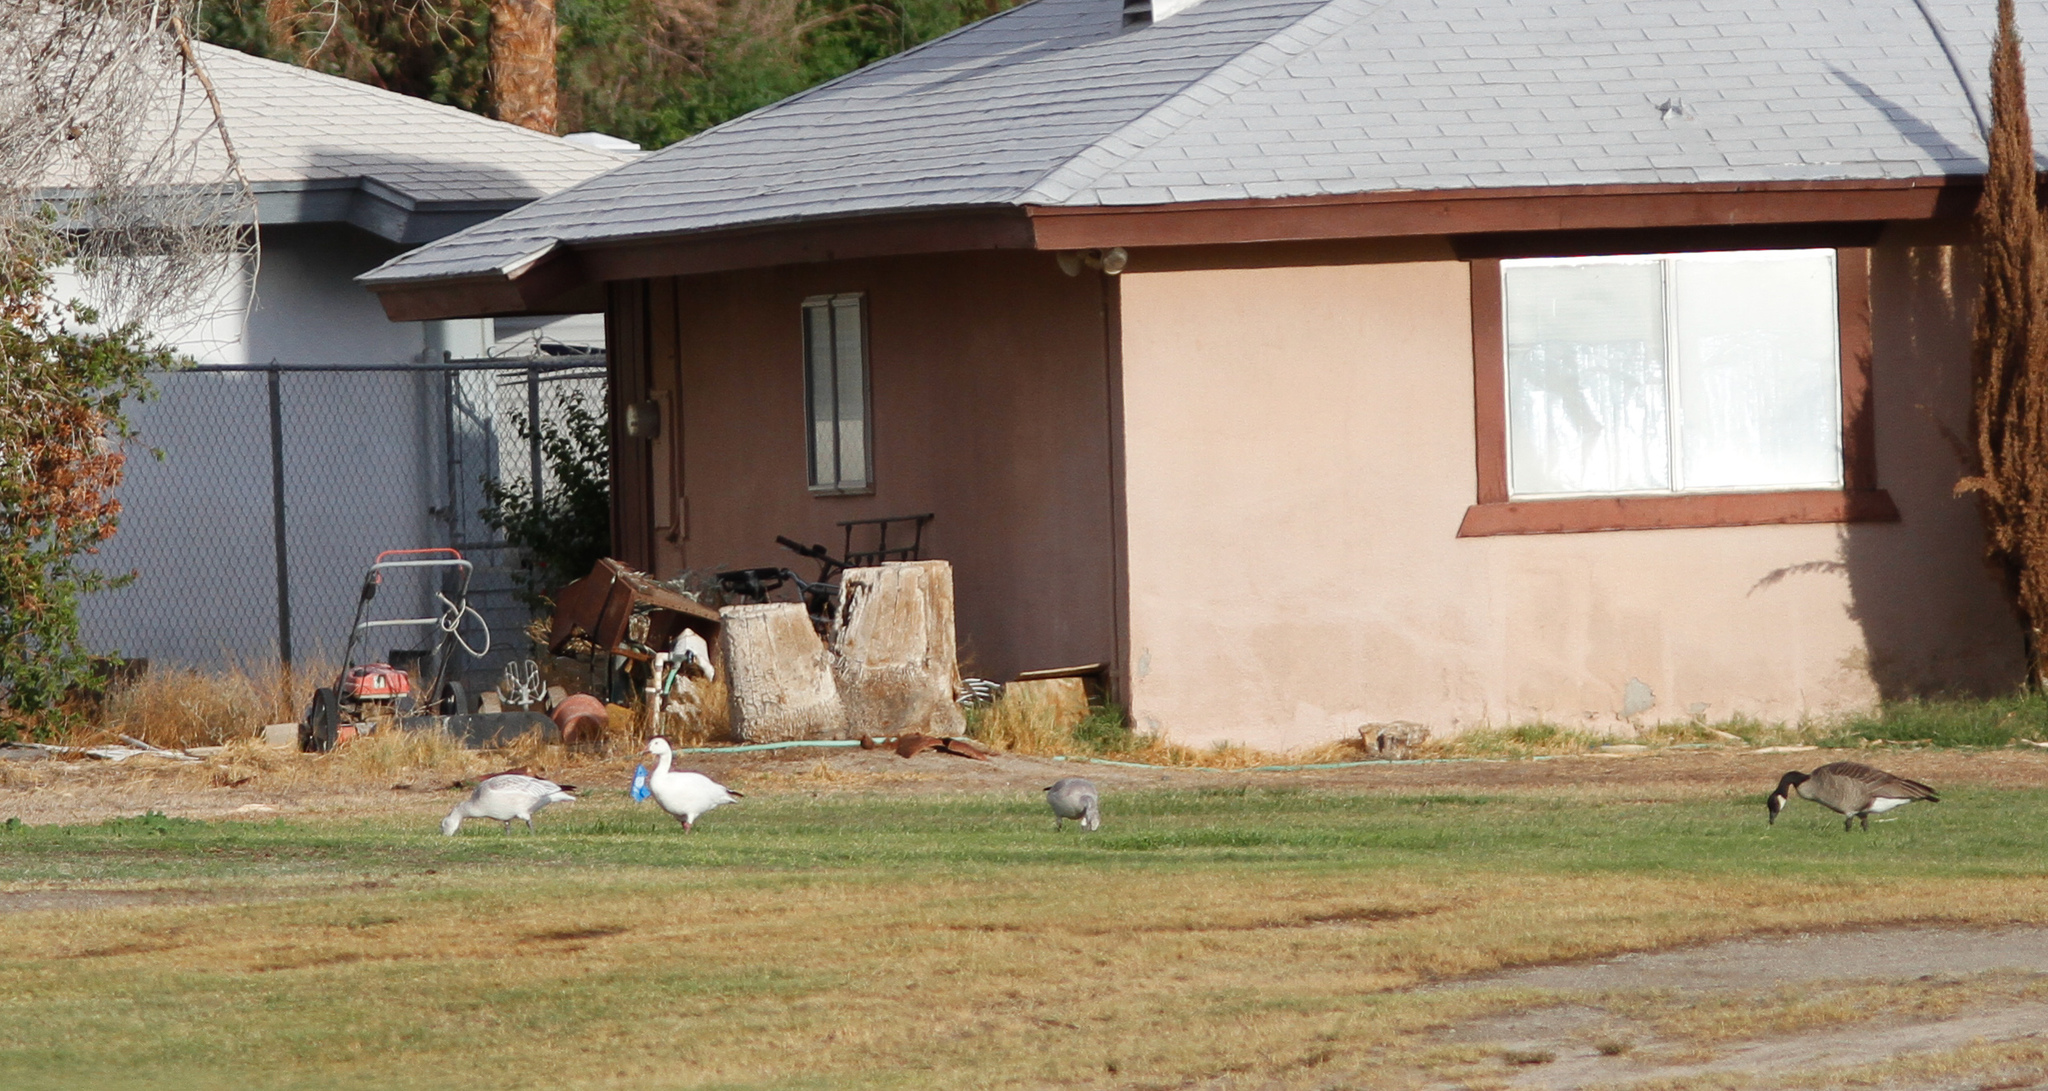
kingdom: Animalia
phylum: Chordata
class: Aves
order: Anseriformes
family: Anatidae
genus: Anser
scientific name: Anser caerulescens
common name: Snow goose
